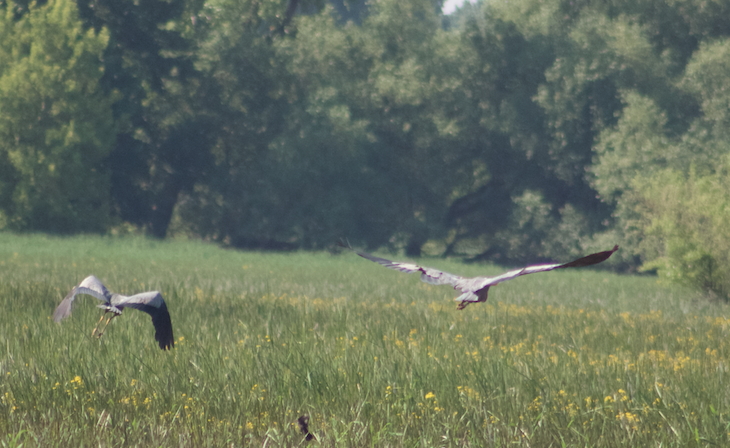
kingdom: Animalia
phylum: Chordata
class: Aves
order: Pelecaniformes
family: Ardeidae
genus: Ardea
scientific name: Ardea herodias
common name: Great blue heron
